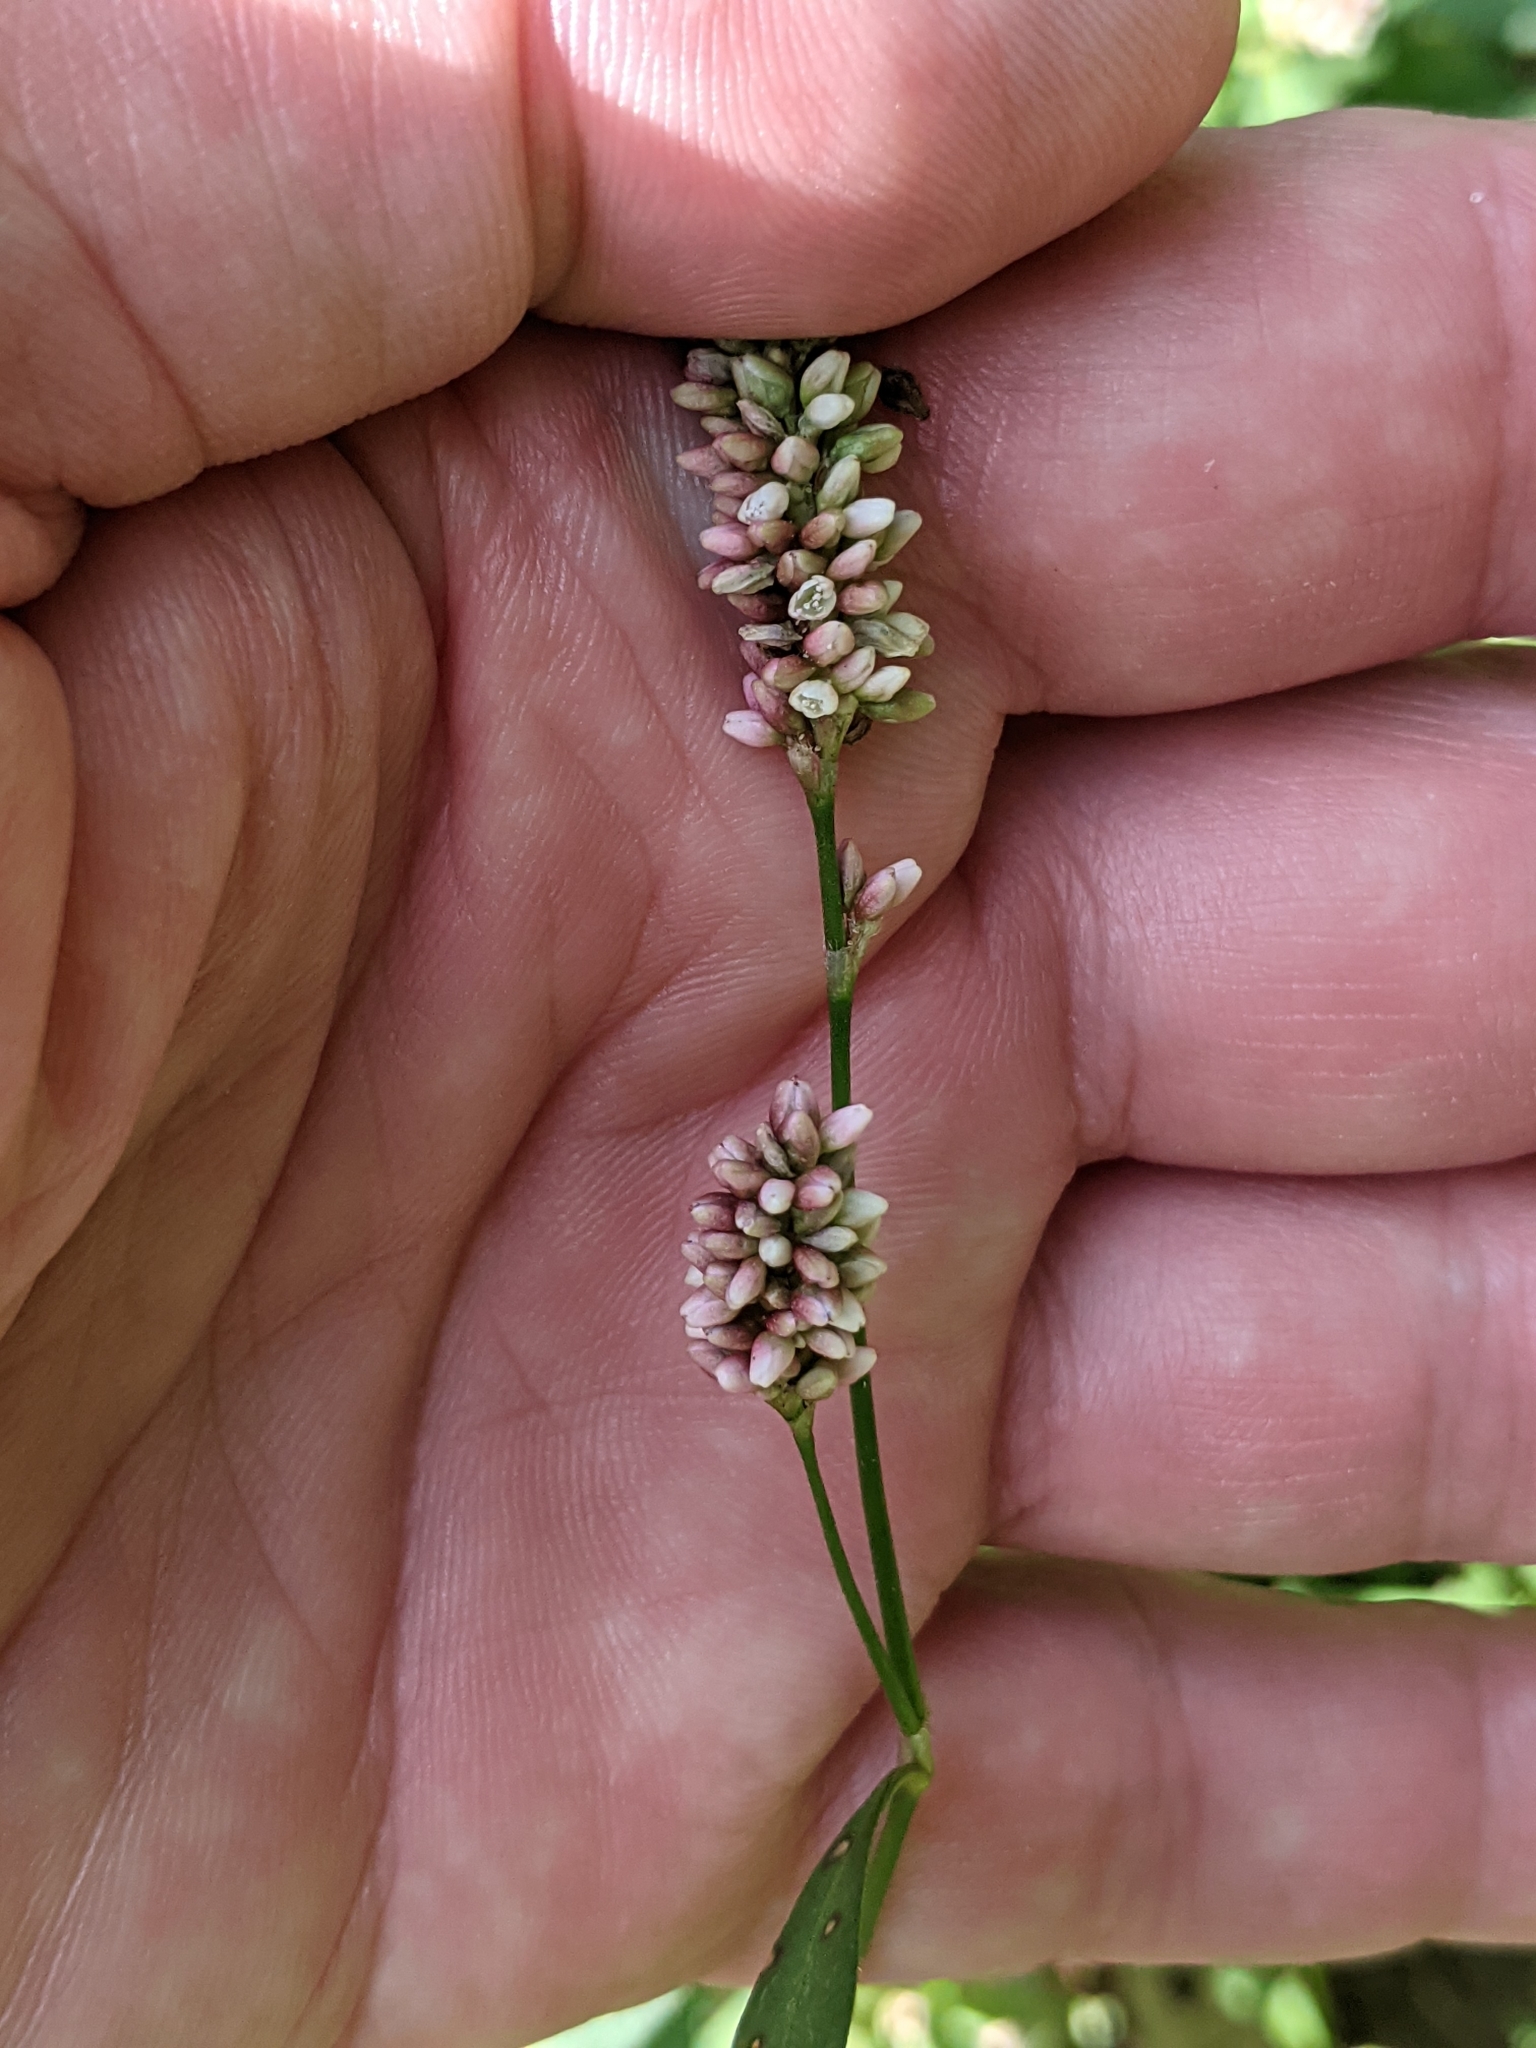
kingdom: Plantae
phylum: Tracheophyta
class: Magnoliopsida
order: Caryophyllales
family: Polygonaceae
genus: Persicaria
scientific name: Persicaria maculosa
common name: Redshank
